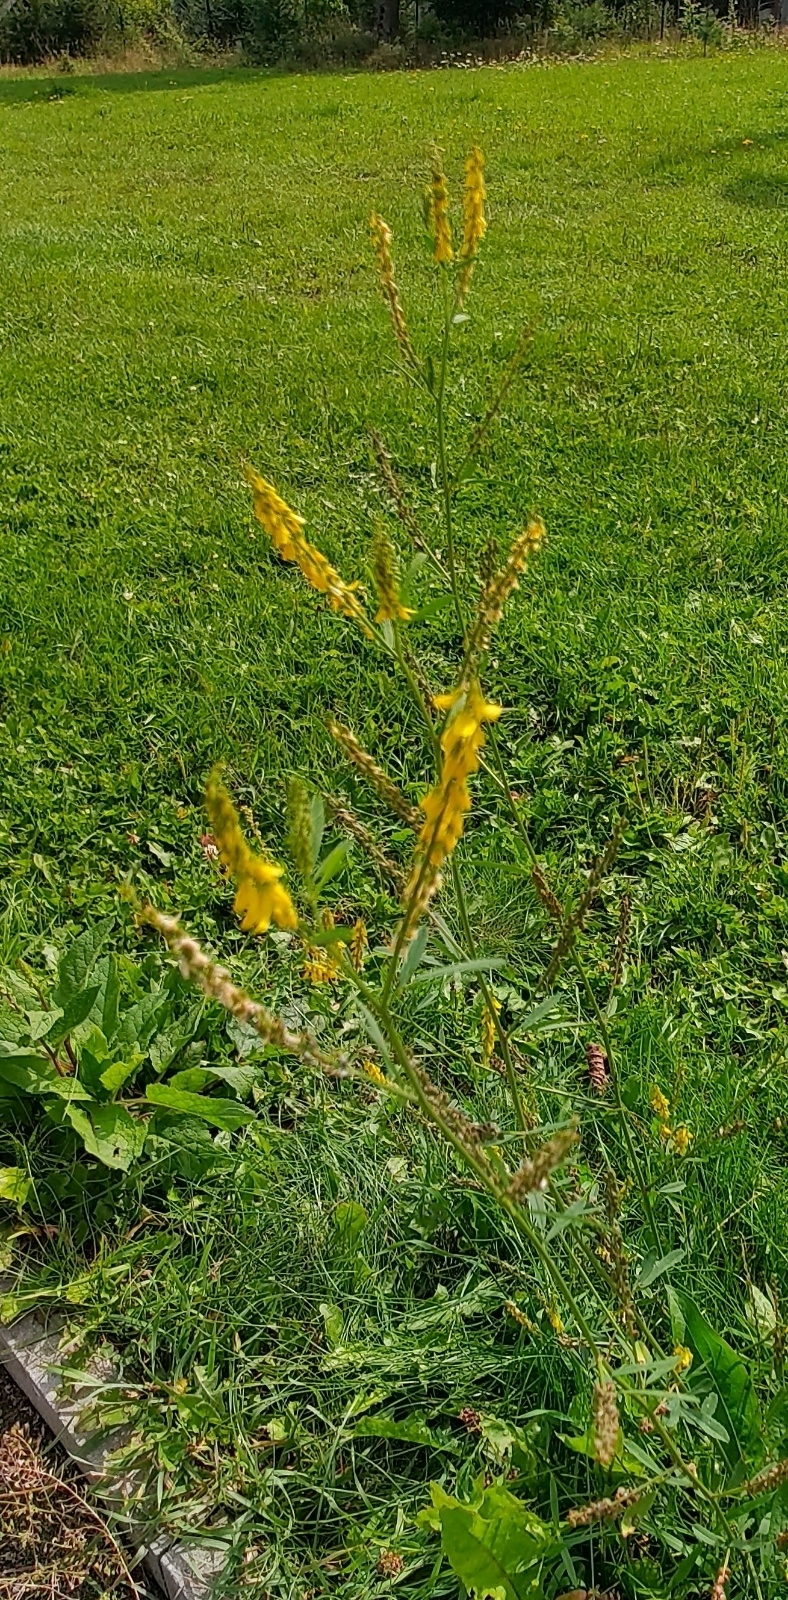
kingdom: Plantae
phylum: Tracheophyta
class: Magnoliopsida
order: Fabales
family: Fabaceae
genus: Melilotus
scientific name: Melilotus officinalis
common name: Sweetclover
